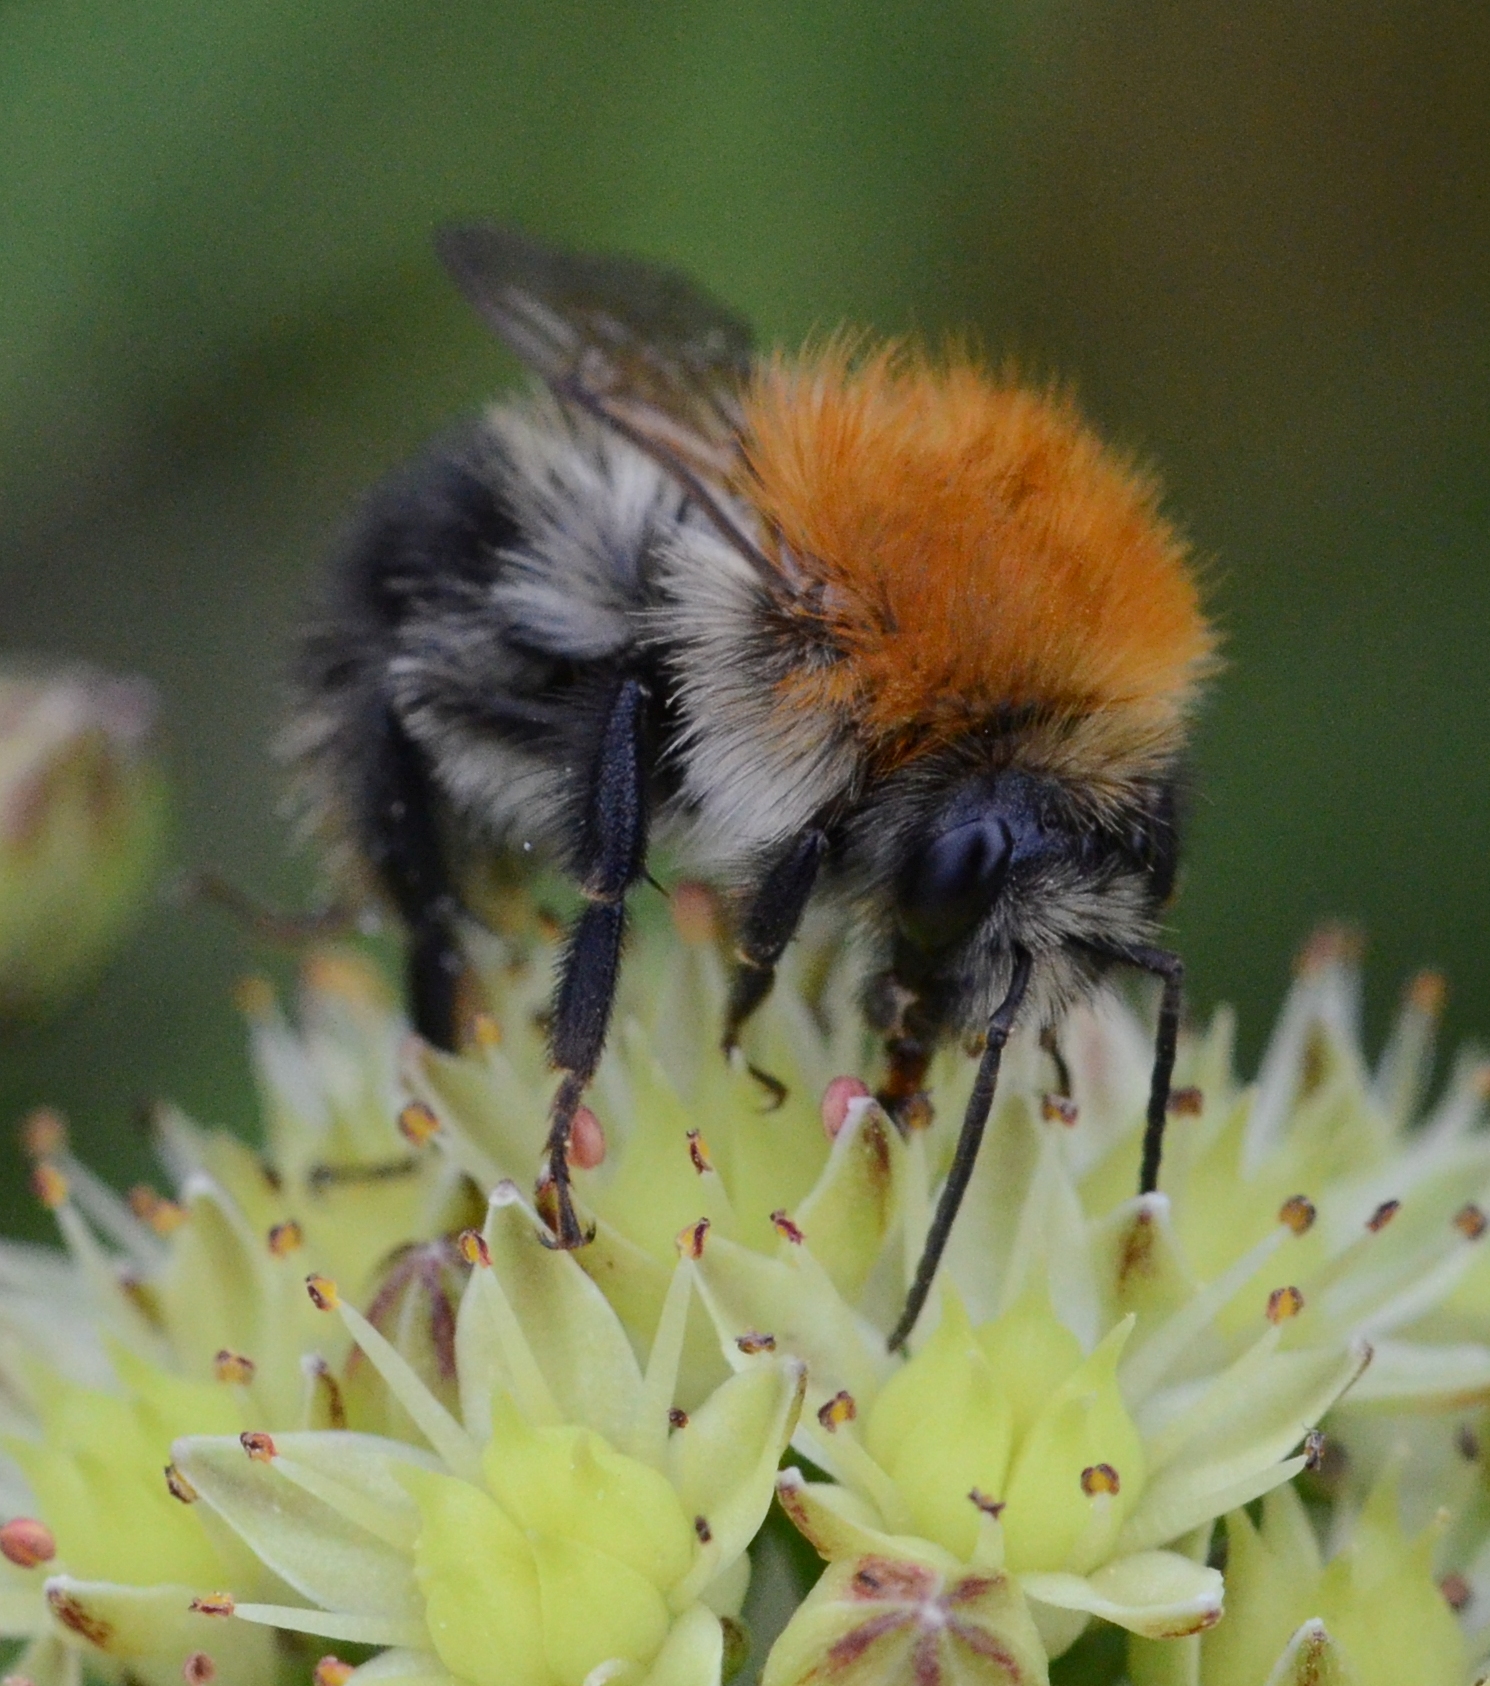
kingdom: Animalia
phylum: Arthropoda
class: Insecta
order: Hymenoptera
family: Apidae
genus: Bombus
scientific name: Bombus pascuorum
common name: Common carder bee
